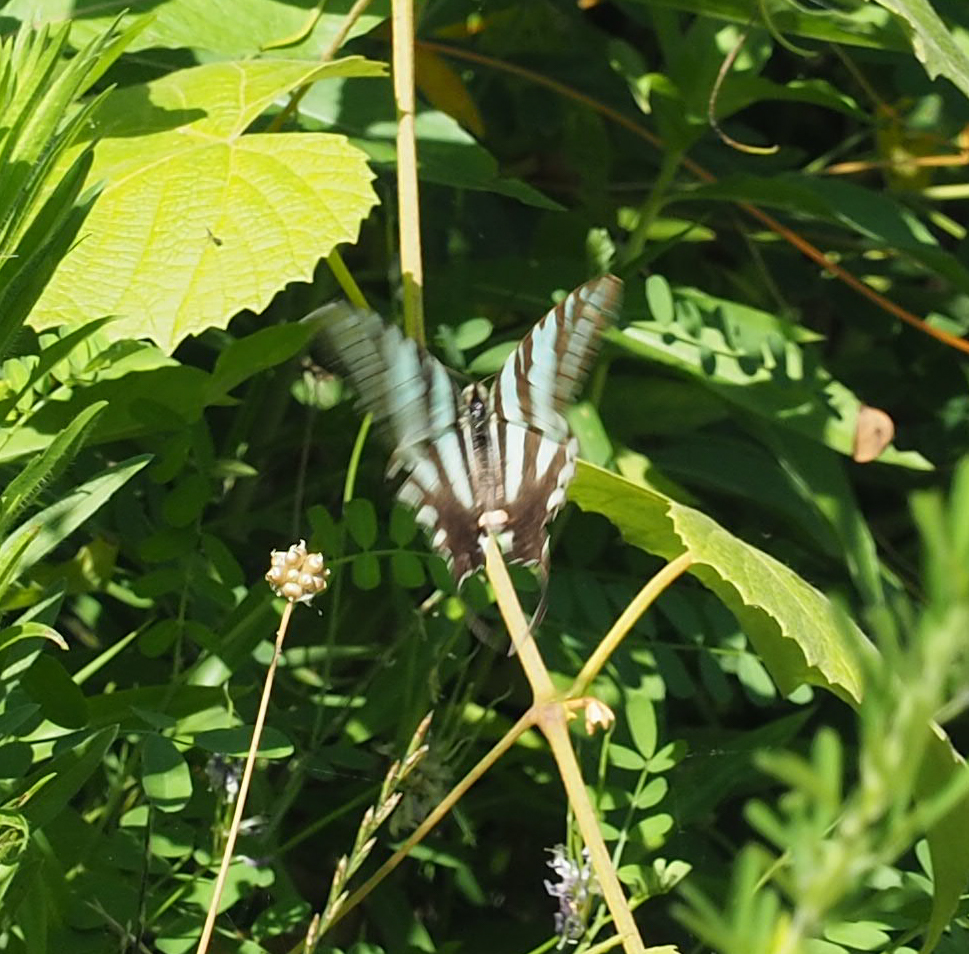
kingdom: Animalia
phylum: Arthropoda
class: Insecta
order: Lepidoptera
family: Papilionidae
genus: Protographium
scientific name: Protographium marcellus
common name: Zebra swallowtail
